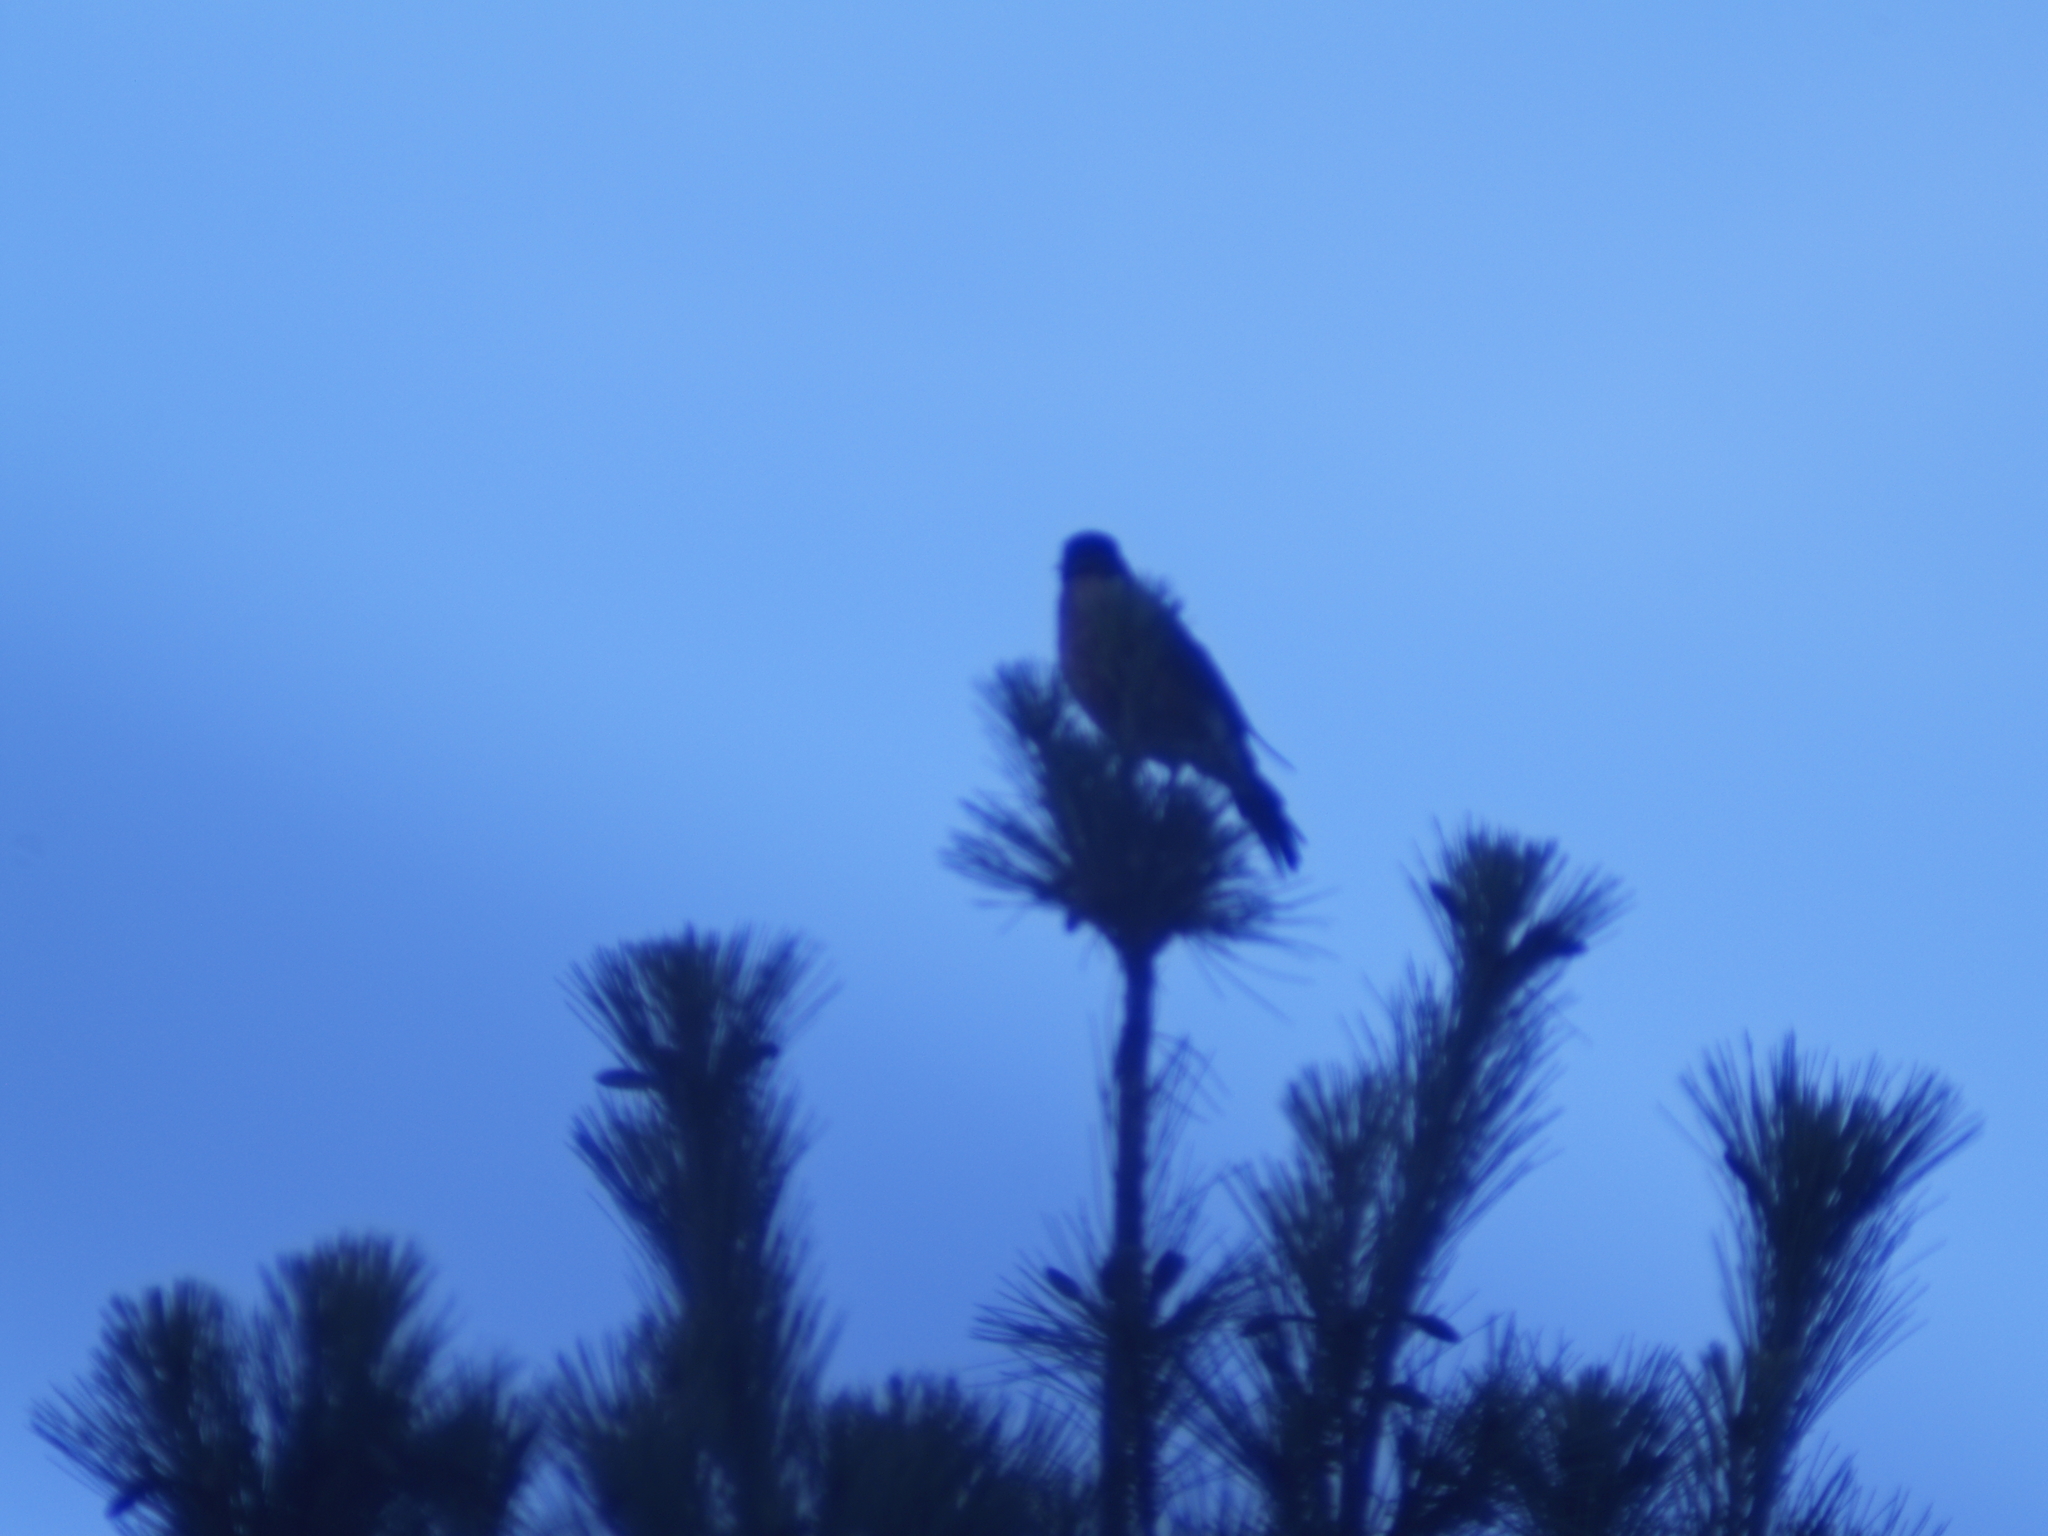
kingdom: Animalia
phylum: Chordata
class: Aves
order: Passeriformes
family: Turdidae
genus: Turdus
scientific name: Turdus migratorius
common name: American robin
